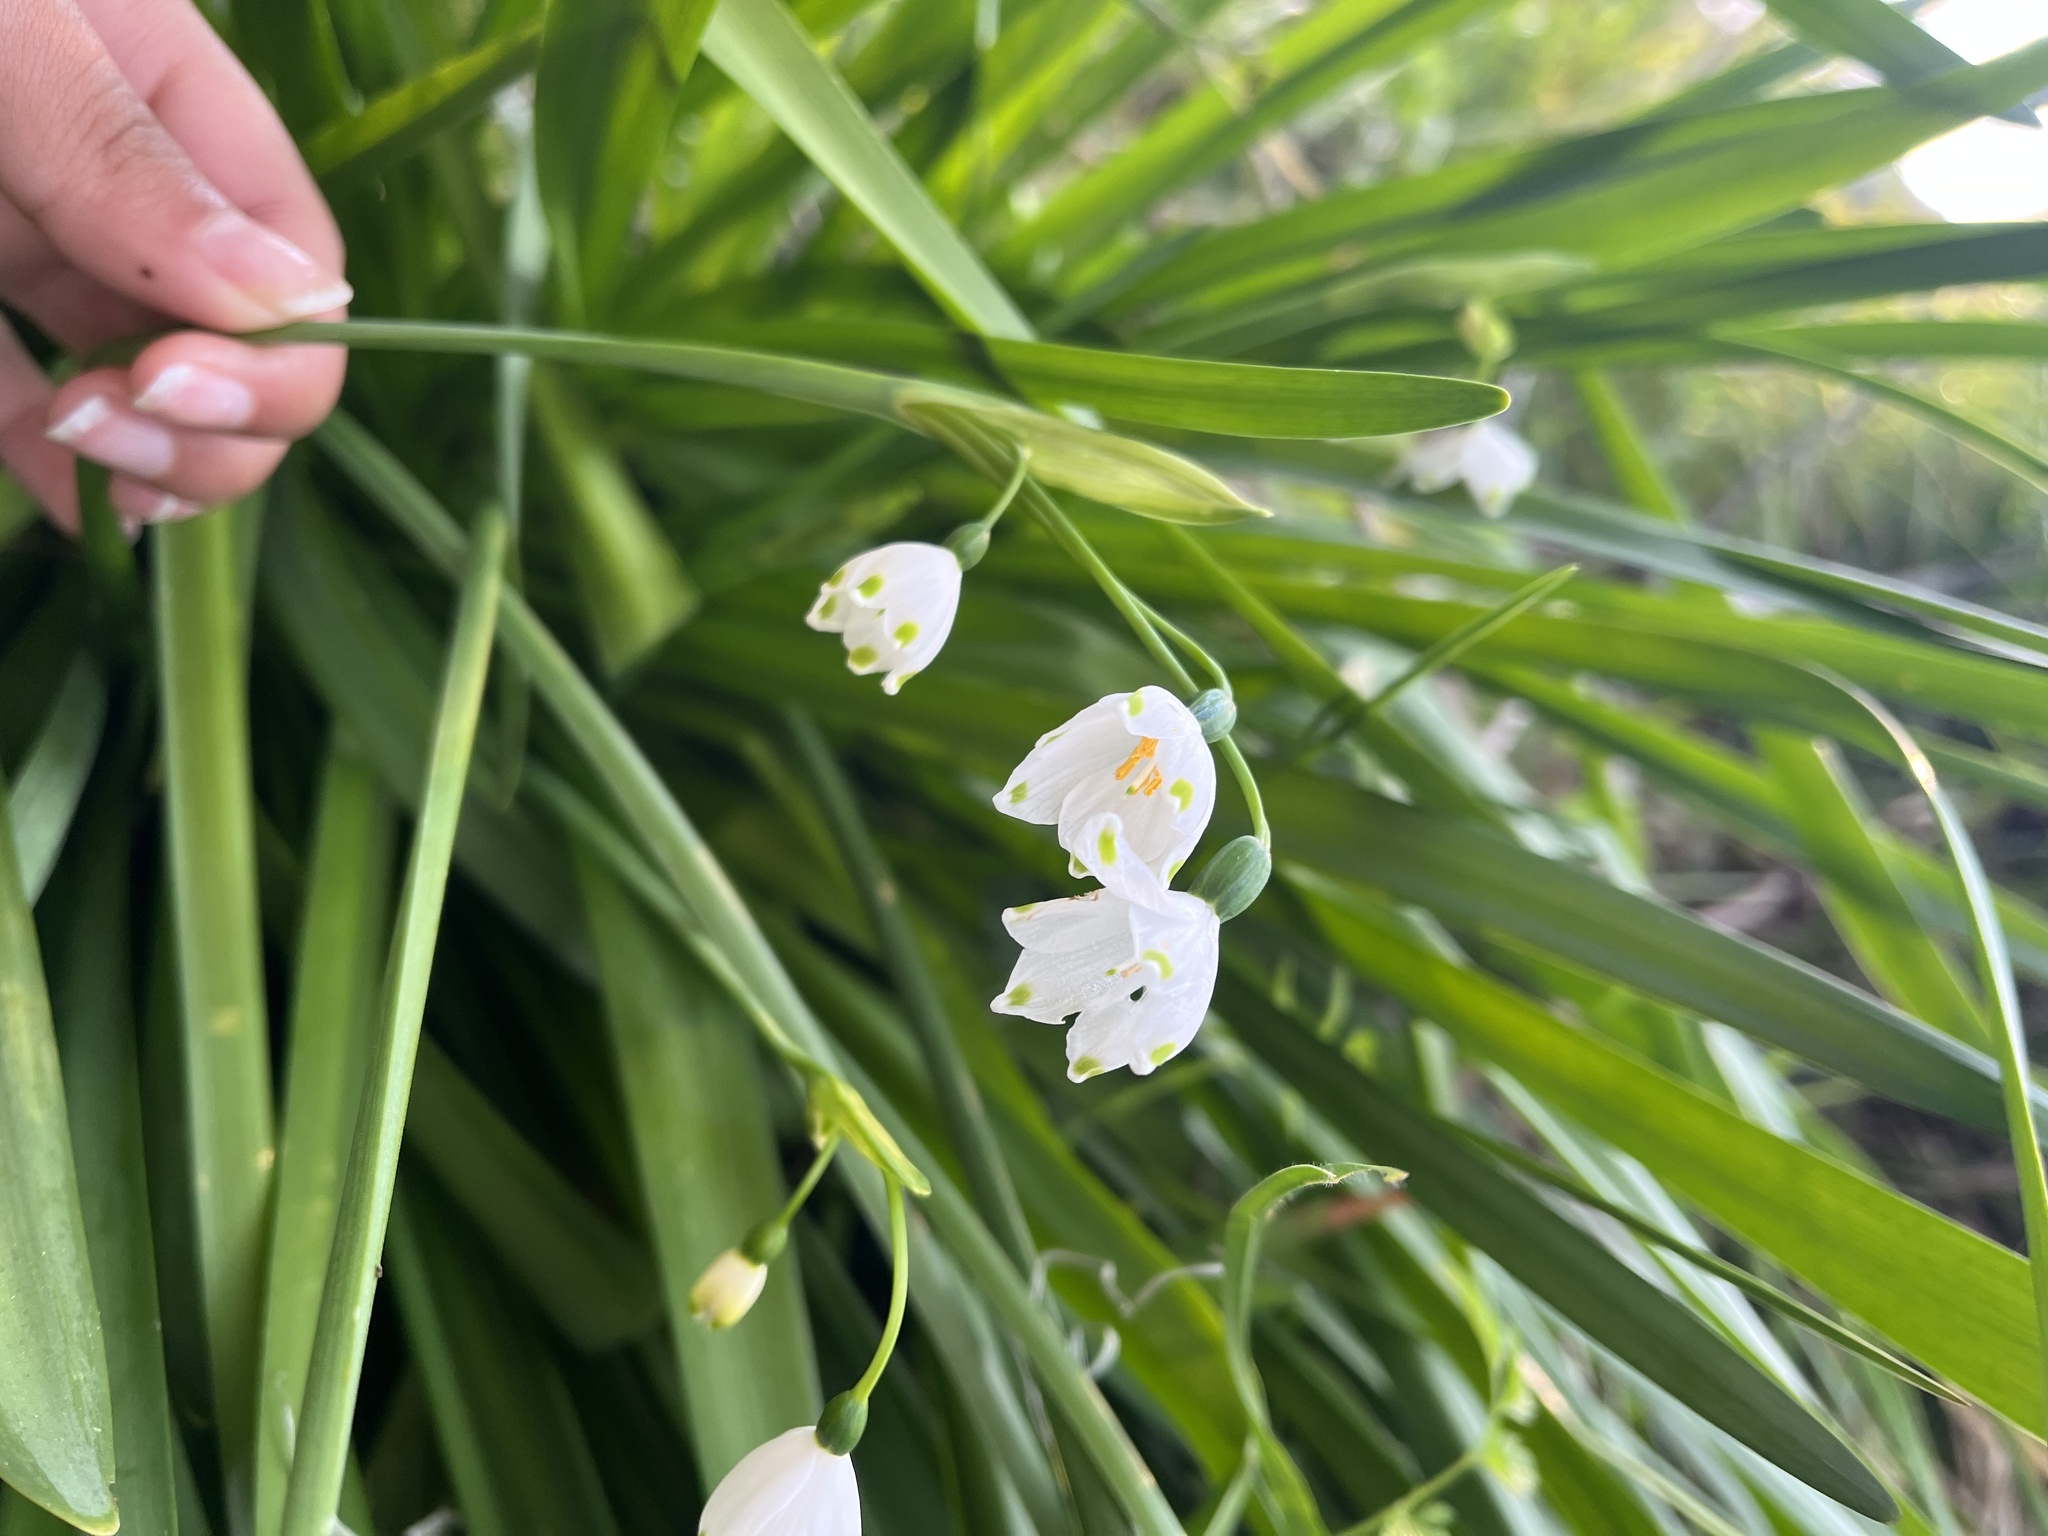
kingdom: Plantae
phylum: Tracheophyta
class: Liliopsida
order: Asparagales
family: Amaryllidaceae
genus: Leucojum
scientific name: Leucojum aestivum
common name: Summer snowflake
